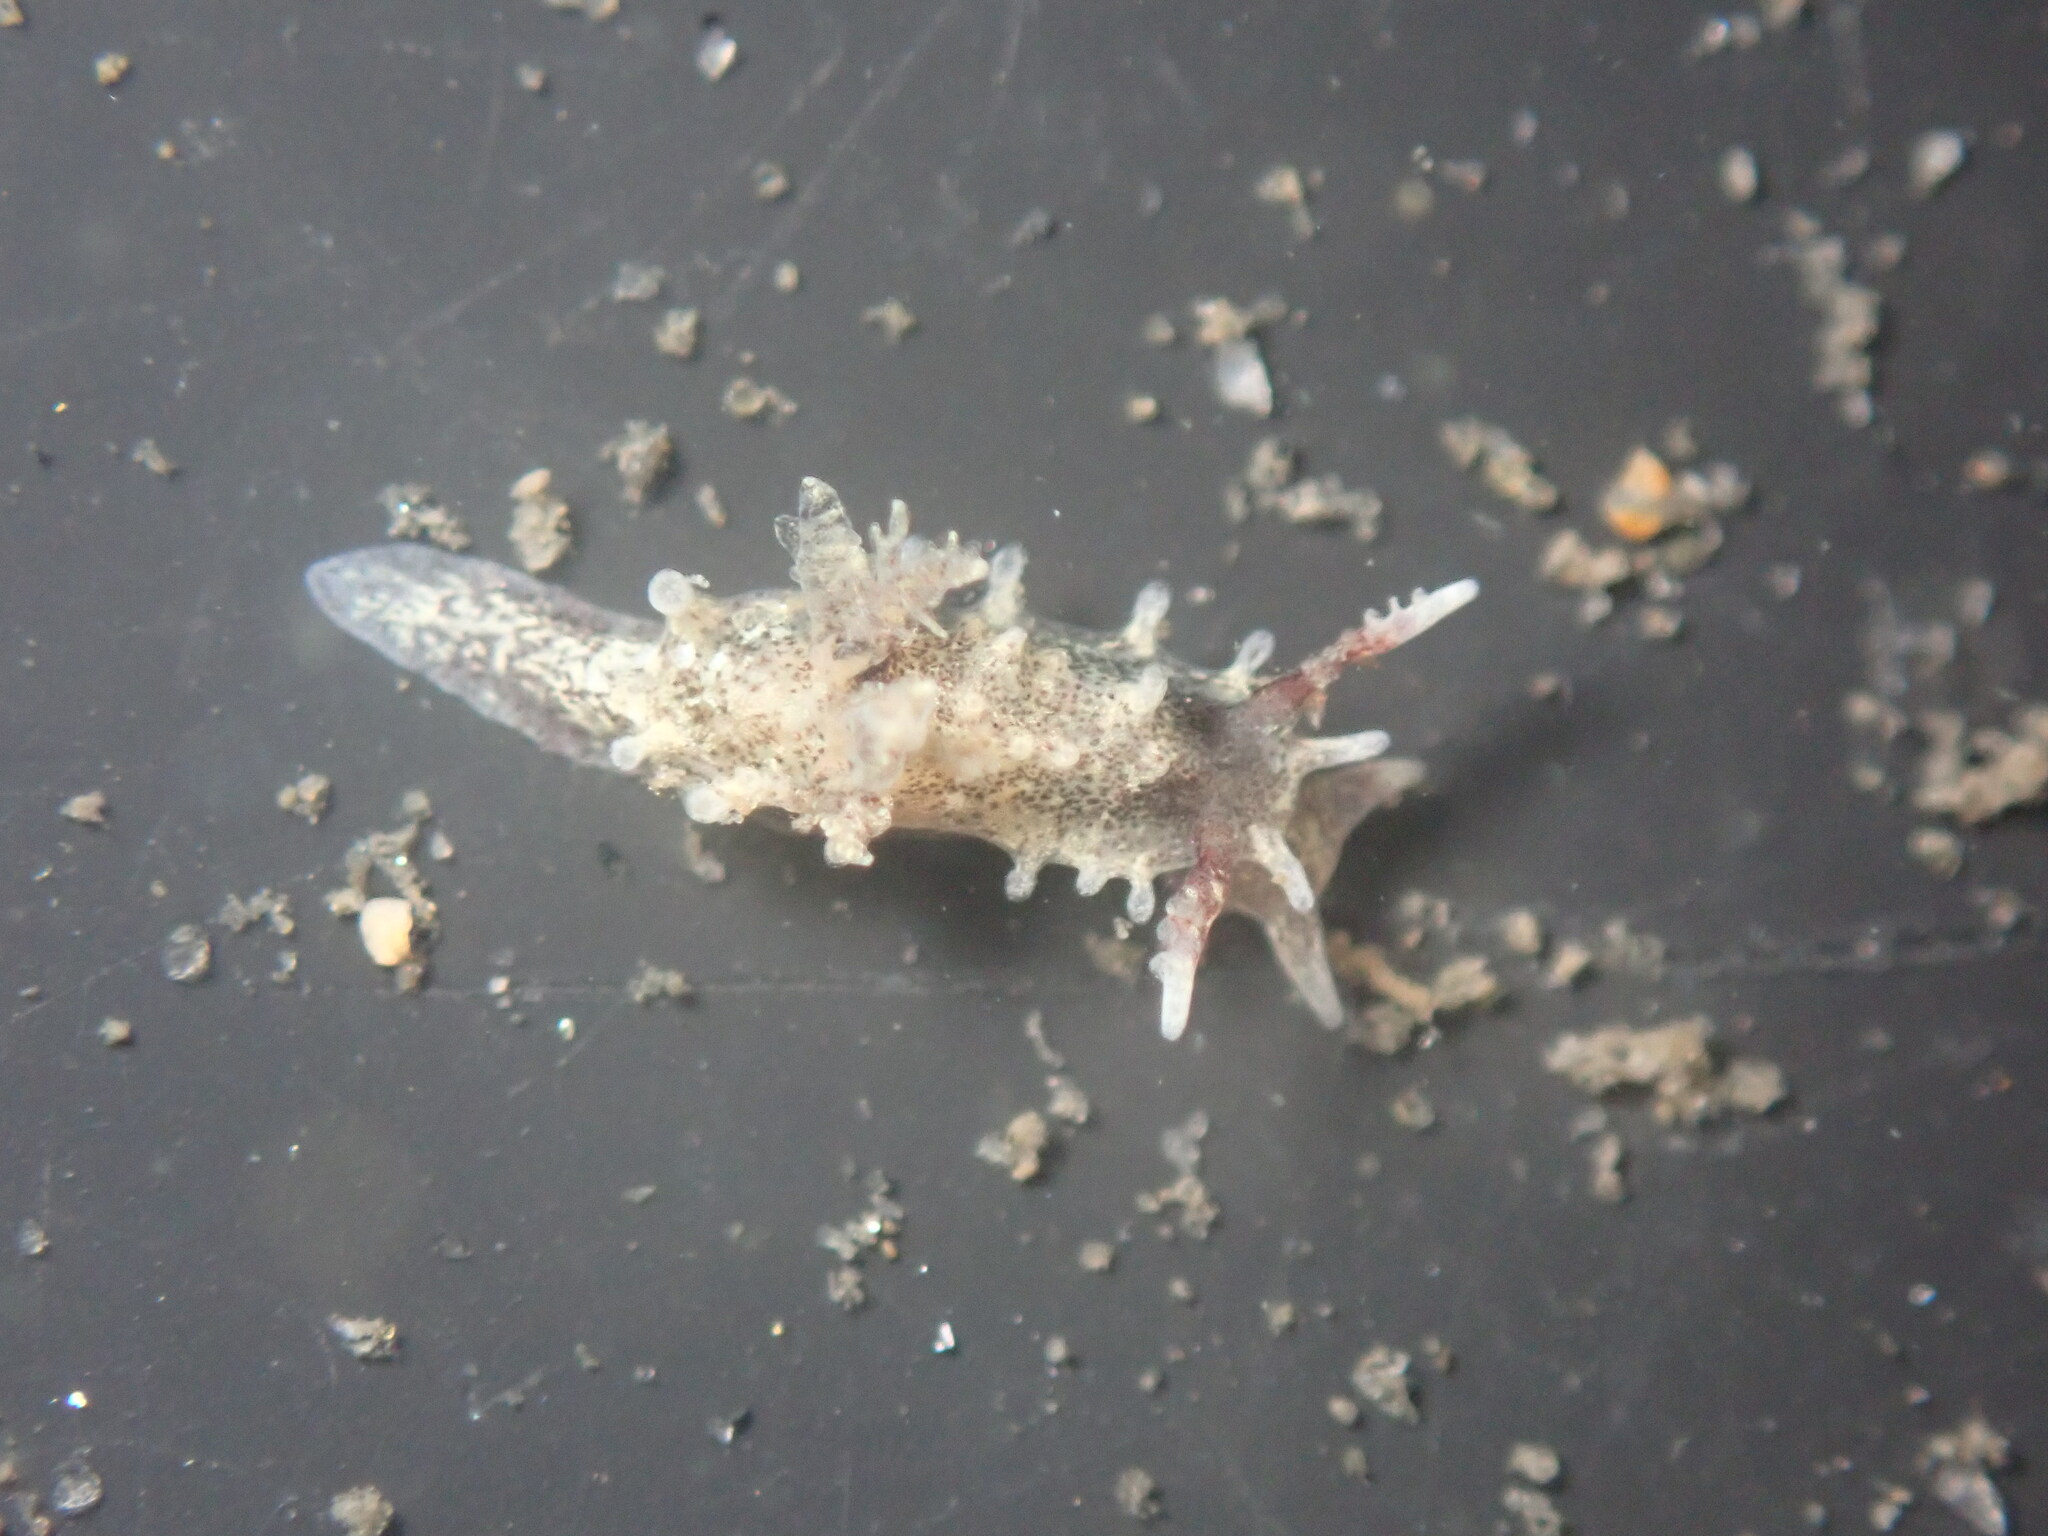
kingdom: Animalia
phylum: Mollusca
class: Gastropoda
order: Nudibranchia
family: Goniodorididae
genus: Okenia
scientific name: Okenia
